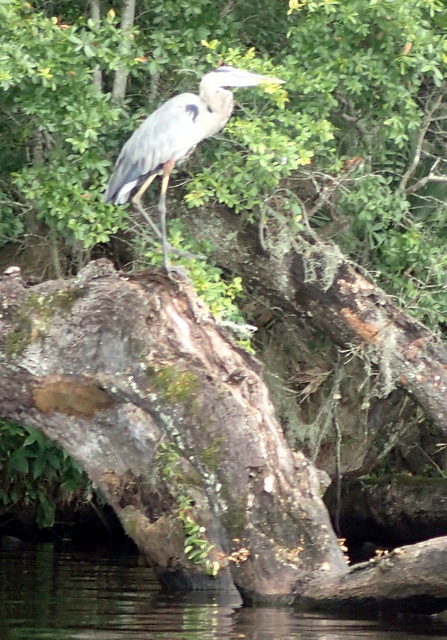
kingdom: Animalia
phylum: Chordata
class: Aves
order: Pelecaniformes
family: Ardeidae
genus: Ardea
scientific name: Ardea herodias
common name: Great blue heron
